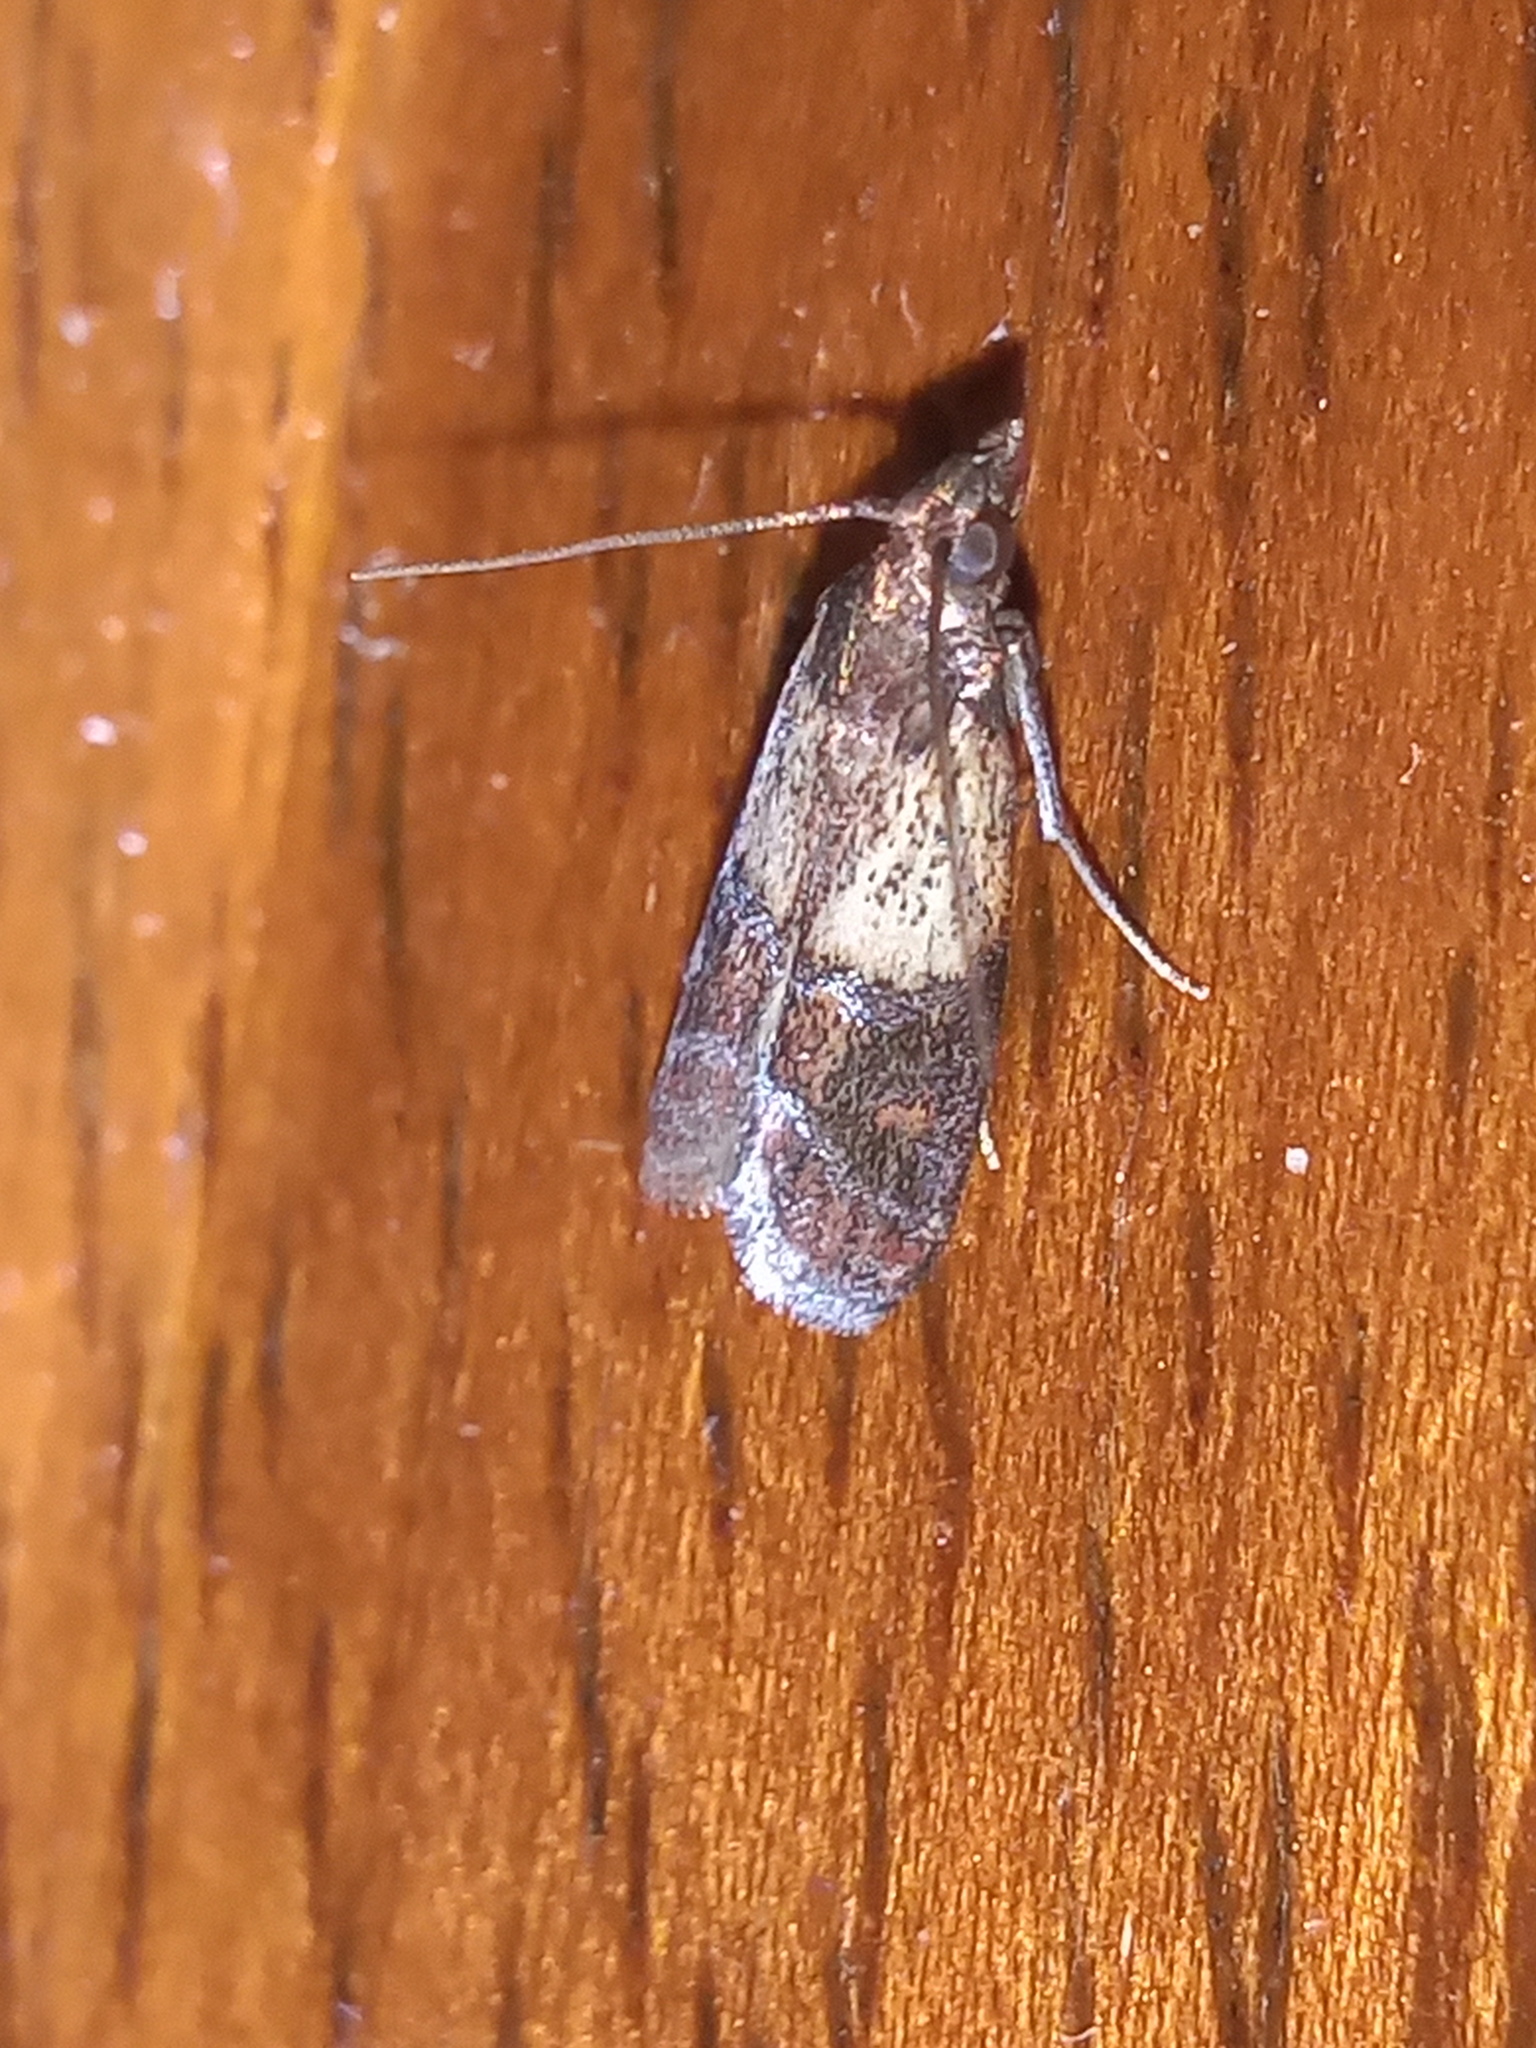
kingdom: Animalia
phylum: Arthropoda
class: Insecta
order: Lepidoptera
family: Pyralidae
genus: Plodia
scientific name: Plodia interpunctella
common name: Indian meal moth
